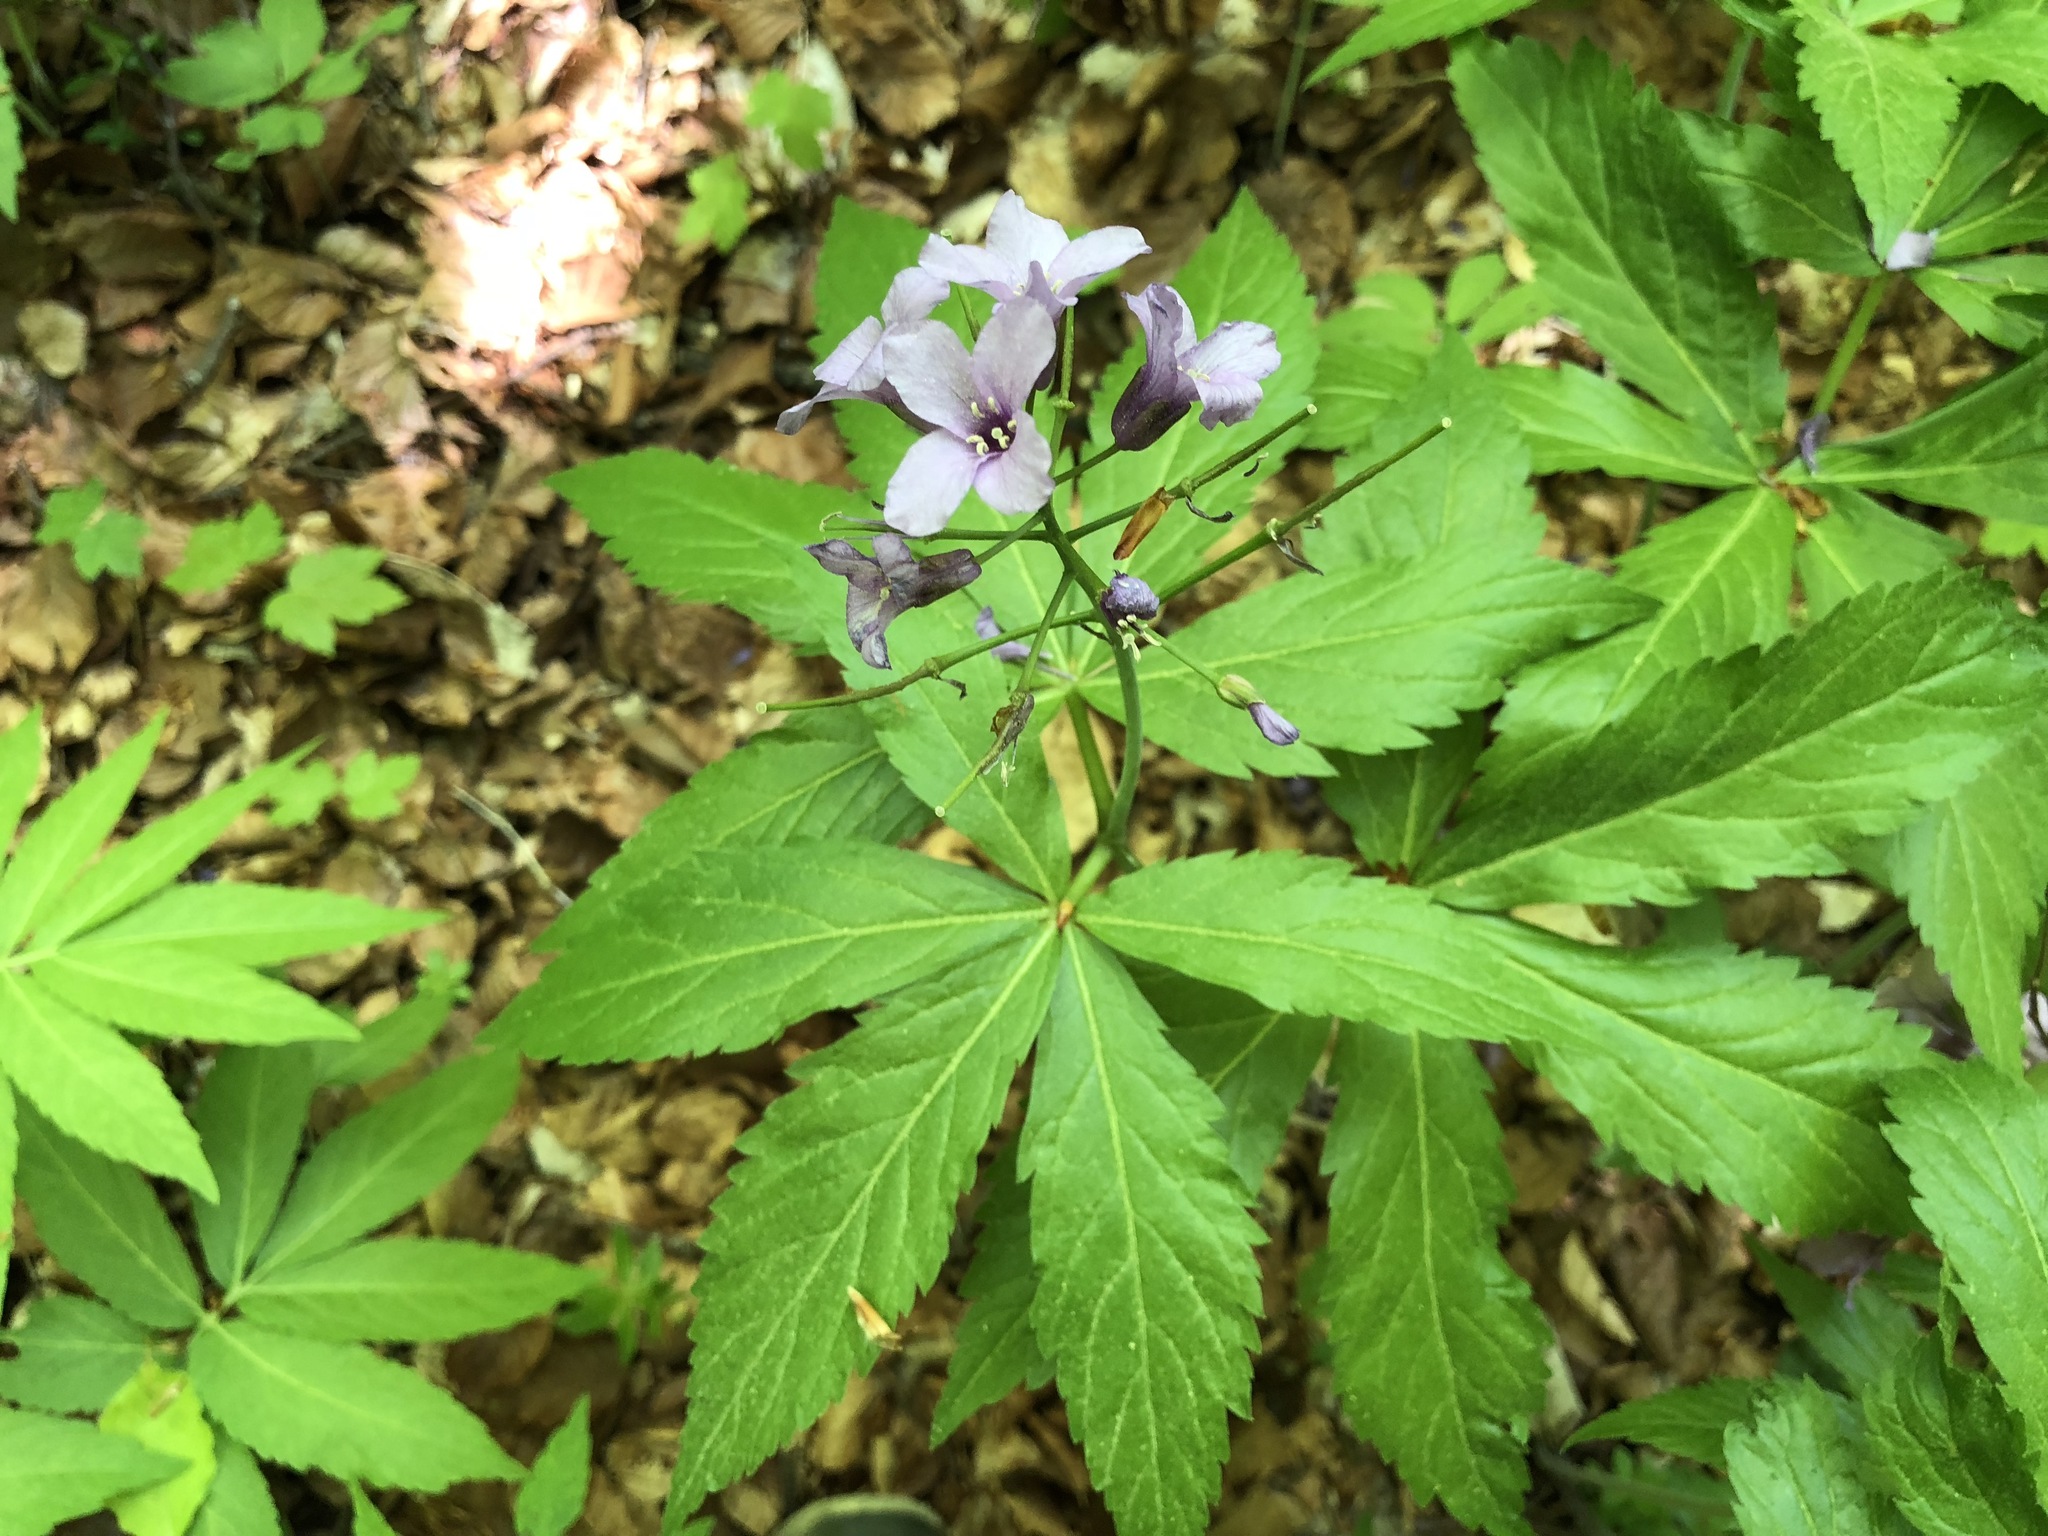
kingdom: Plantae
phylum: Tracheophyta
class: Magnoliopsida
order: Brassicales
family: Brassicaceae
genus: Cardamine
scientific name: Cardamine pentaphyllos
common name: Five-leaflet bitter-cress
